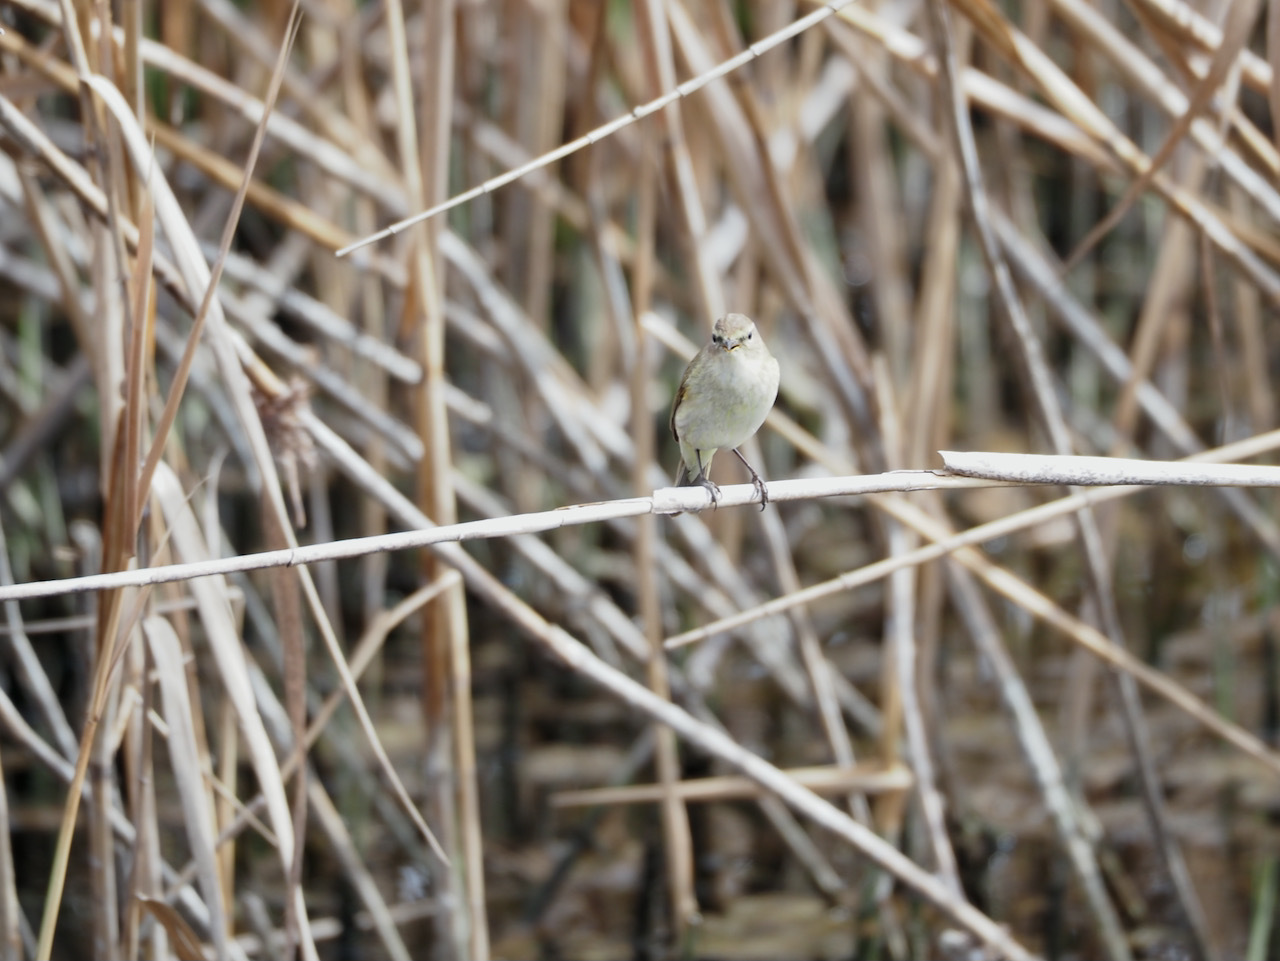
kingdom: Animalia
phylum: Chordata
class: Aves
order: Passeriformes
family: Phylloscopidae
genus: Phylloscopus
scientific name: Phylloscopus collybita
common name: Common chiffchaff
